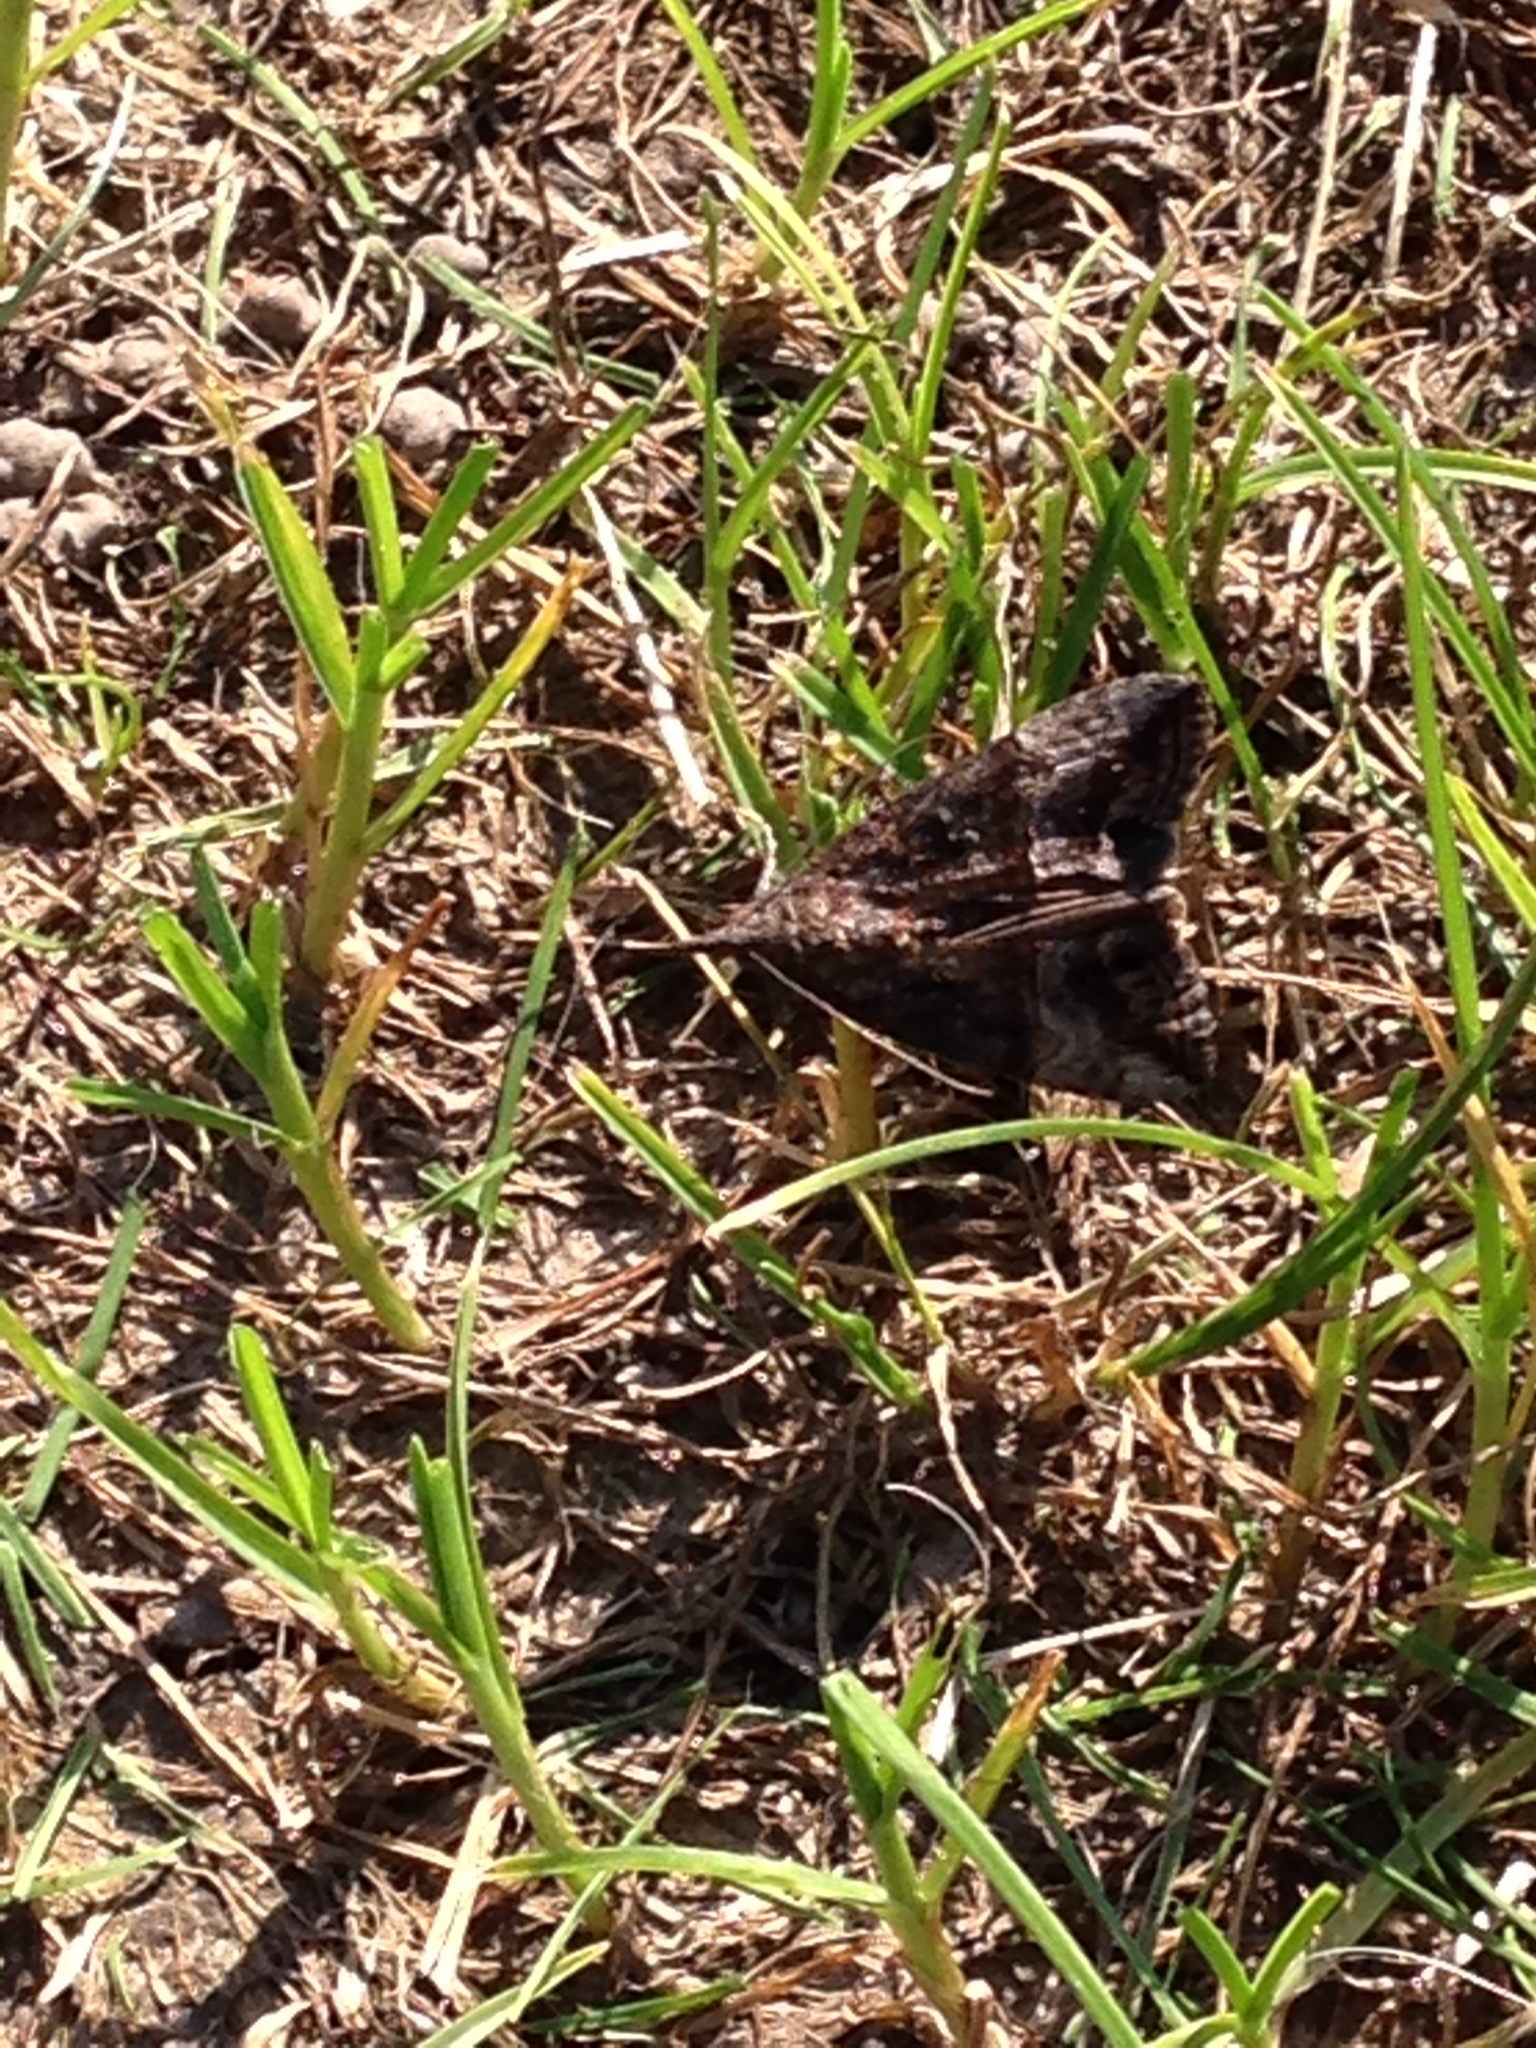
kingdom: Animalia
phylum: Arthropoda
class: Insecta
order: Lepidoptera
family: Erebidae
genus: Hypena
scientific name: Hypena scabra
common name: Green cloverworm
